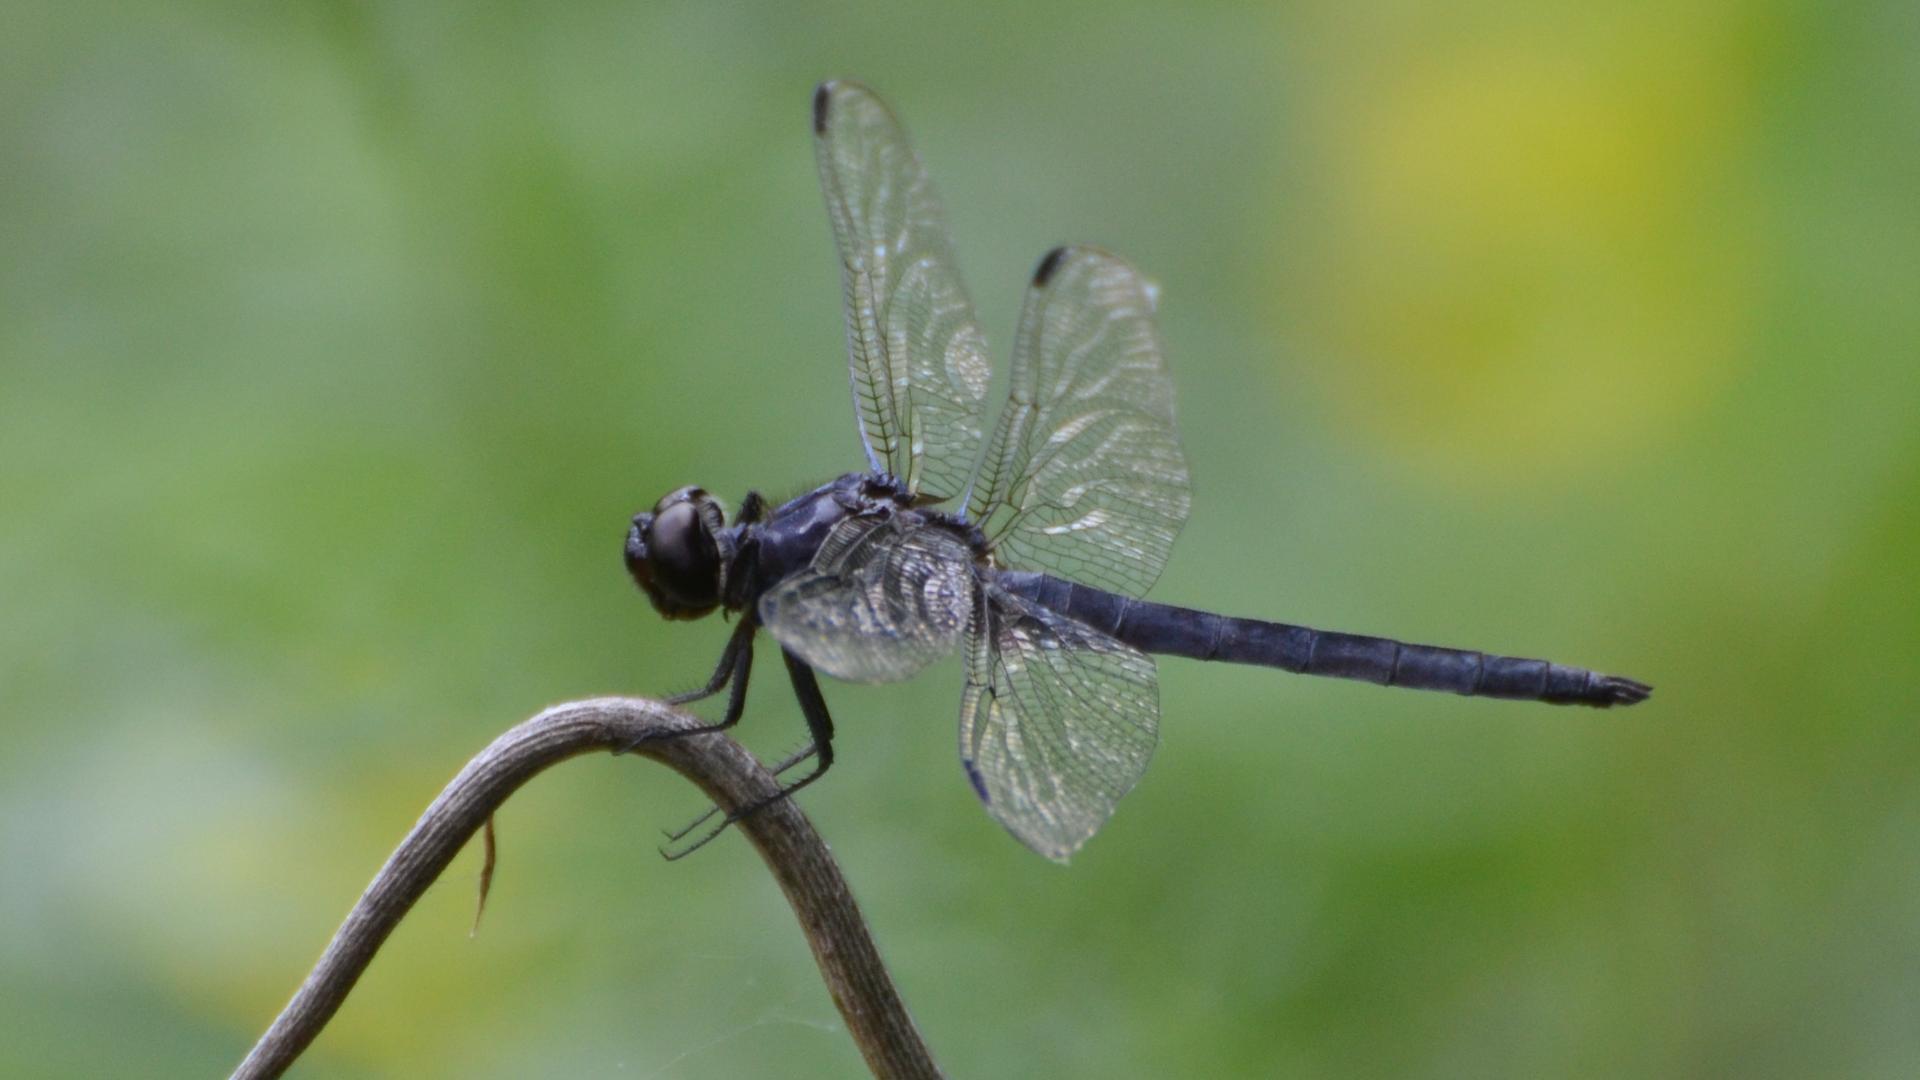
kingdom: Animalia
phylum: Arthropoda
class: Insecta
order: Odonata
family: Libellulidae
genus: Libellula
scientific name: Libellula incesta
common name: Slaty skimmer
